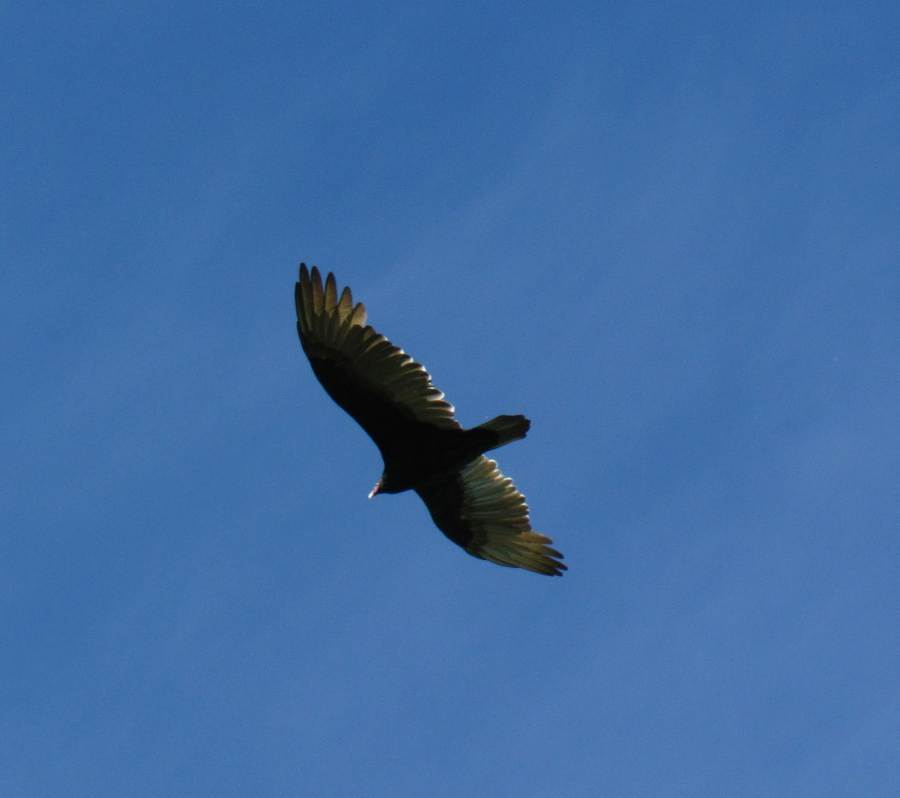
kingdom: Animalia
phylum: Chordata
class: Aves
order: Accipitriformes
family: Cathartidae
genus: Cathartes
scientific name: Cathartes aura
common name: Turkey vulture
